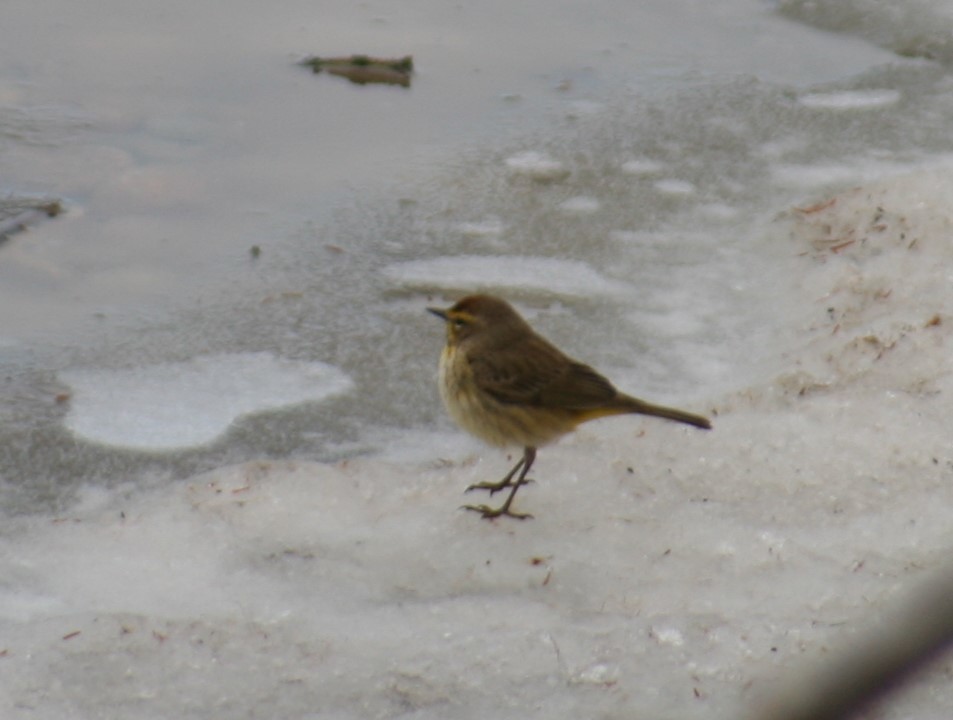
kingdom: Animalia
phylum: Chordata
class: Aves
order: Passeriformes
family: Parulidae
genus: Setophaga
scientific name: Setophaga palmarum
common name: Palm warbler
